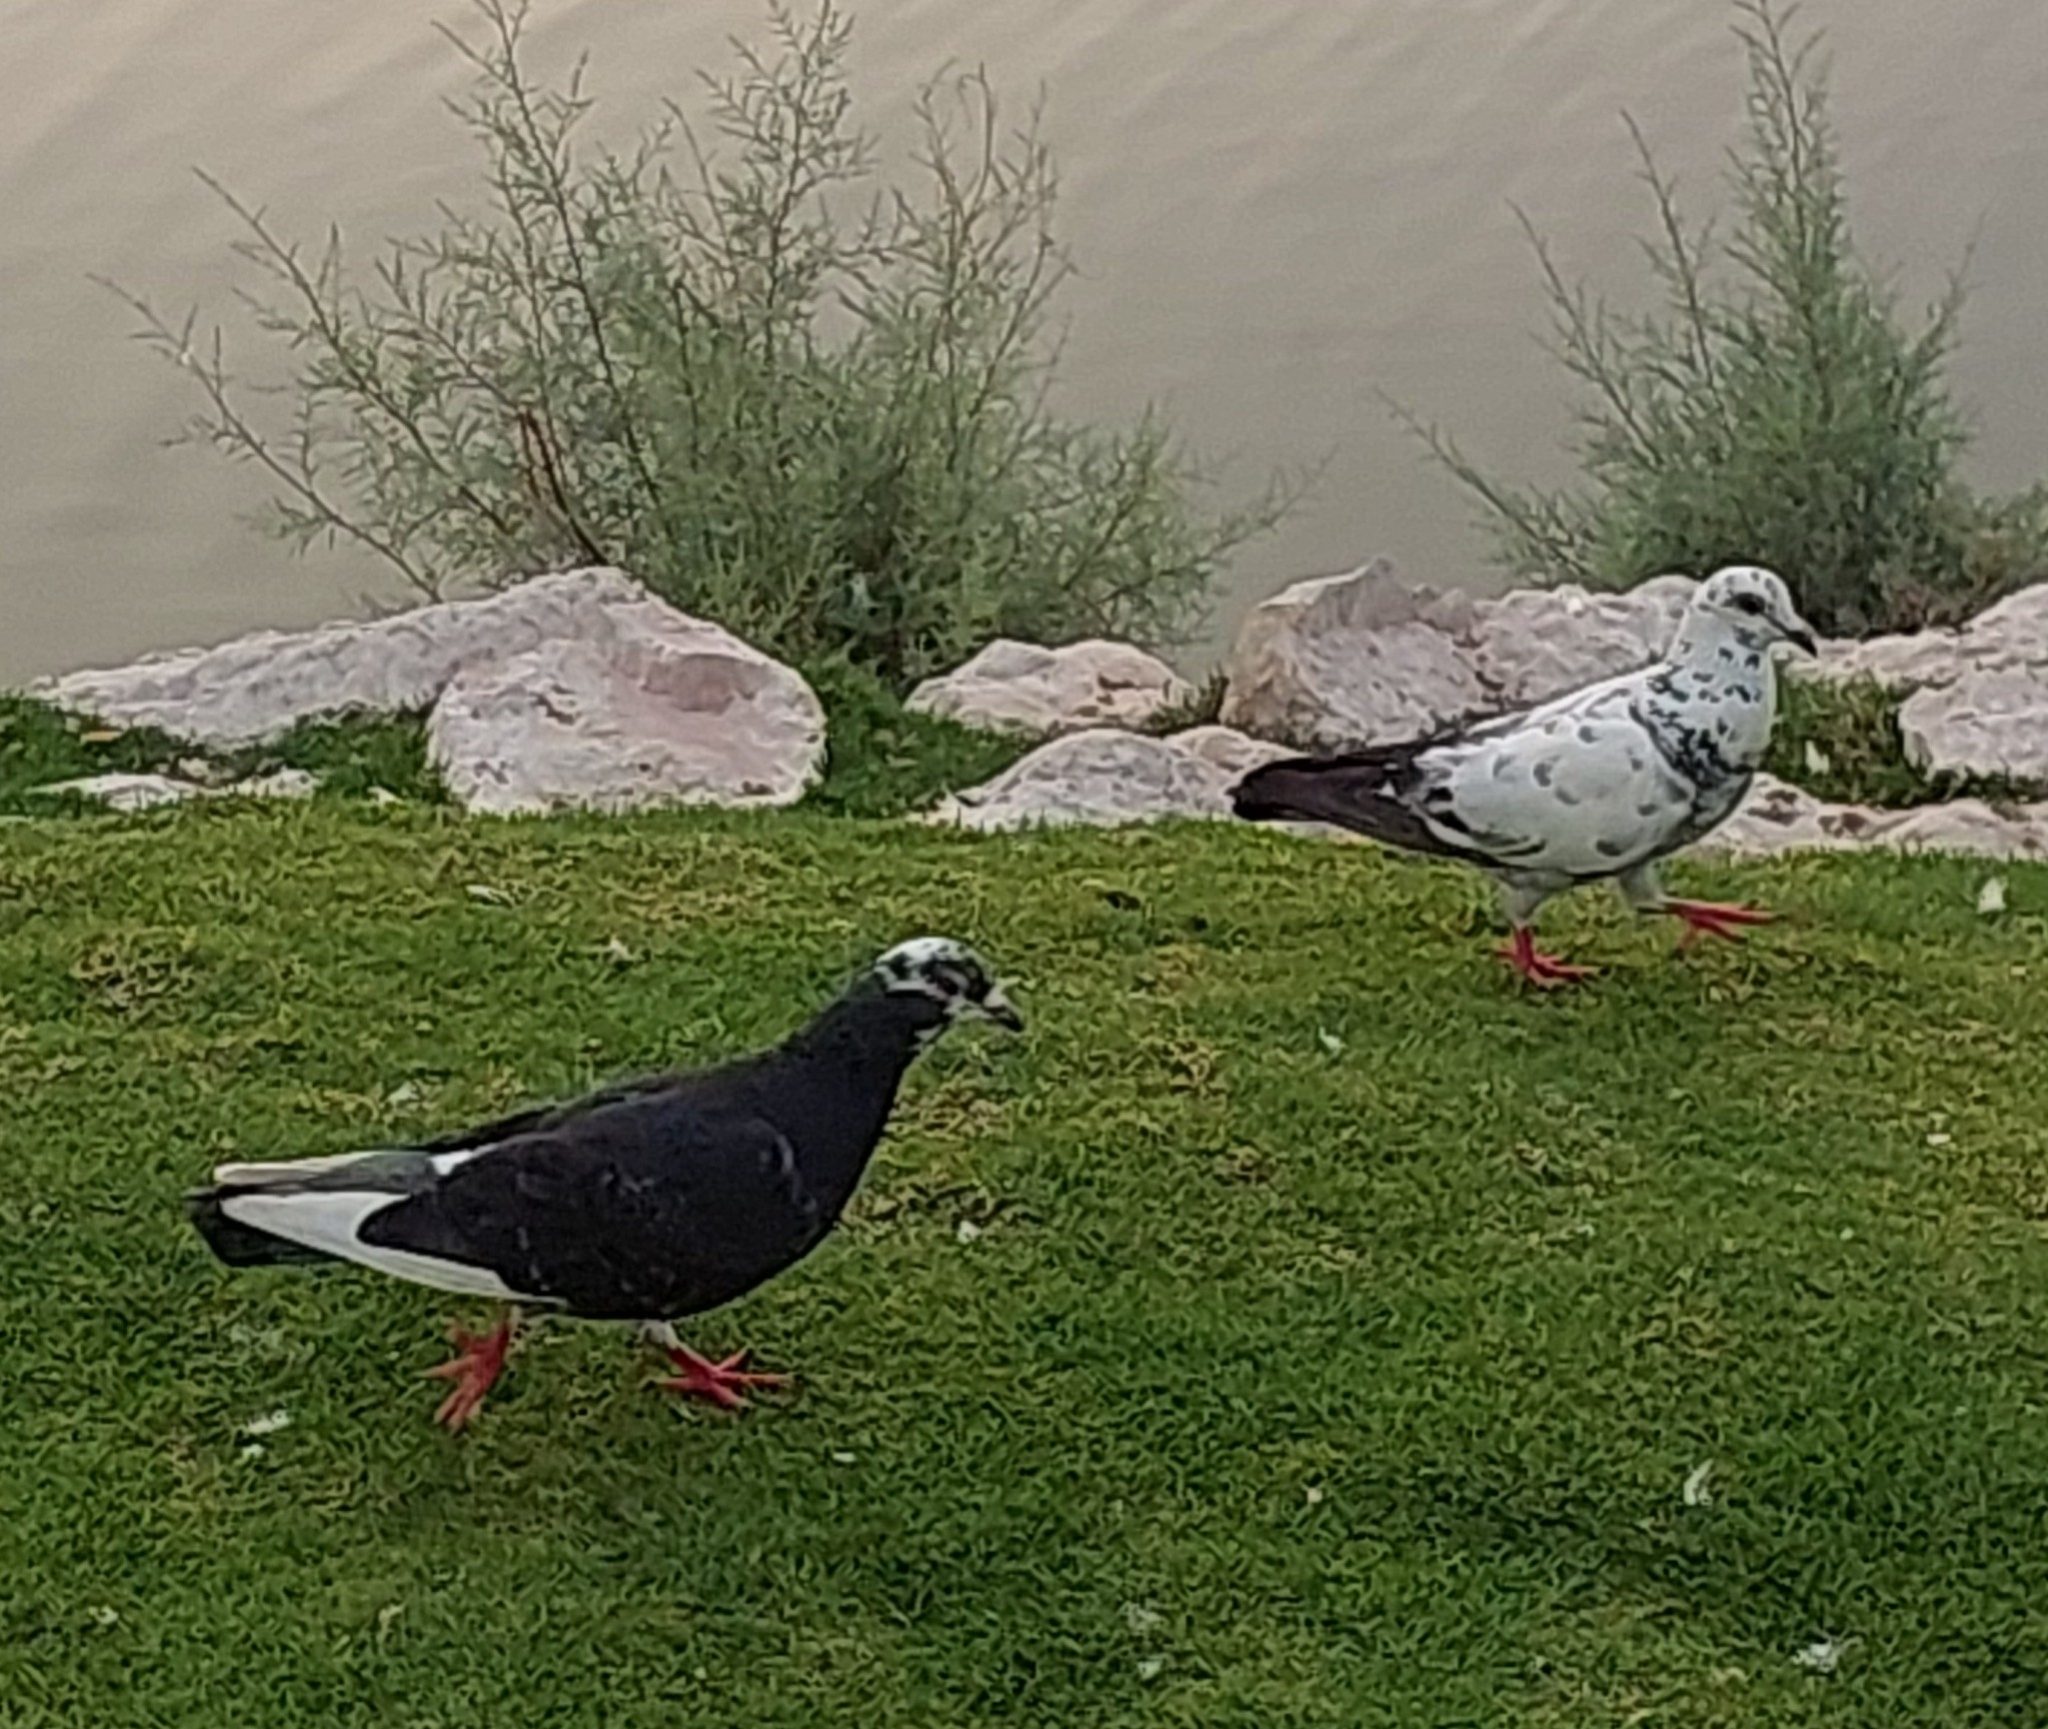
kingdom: Animalia
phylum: Chordata
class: Aves
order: Columbiformes
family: Columbidae
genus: Columba
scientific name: Columba livia
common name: Rock pigeon
